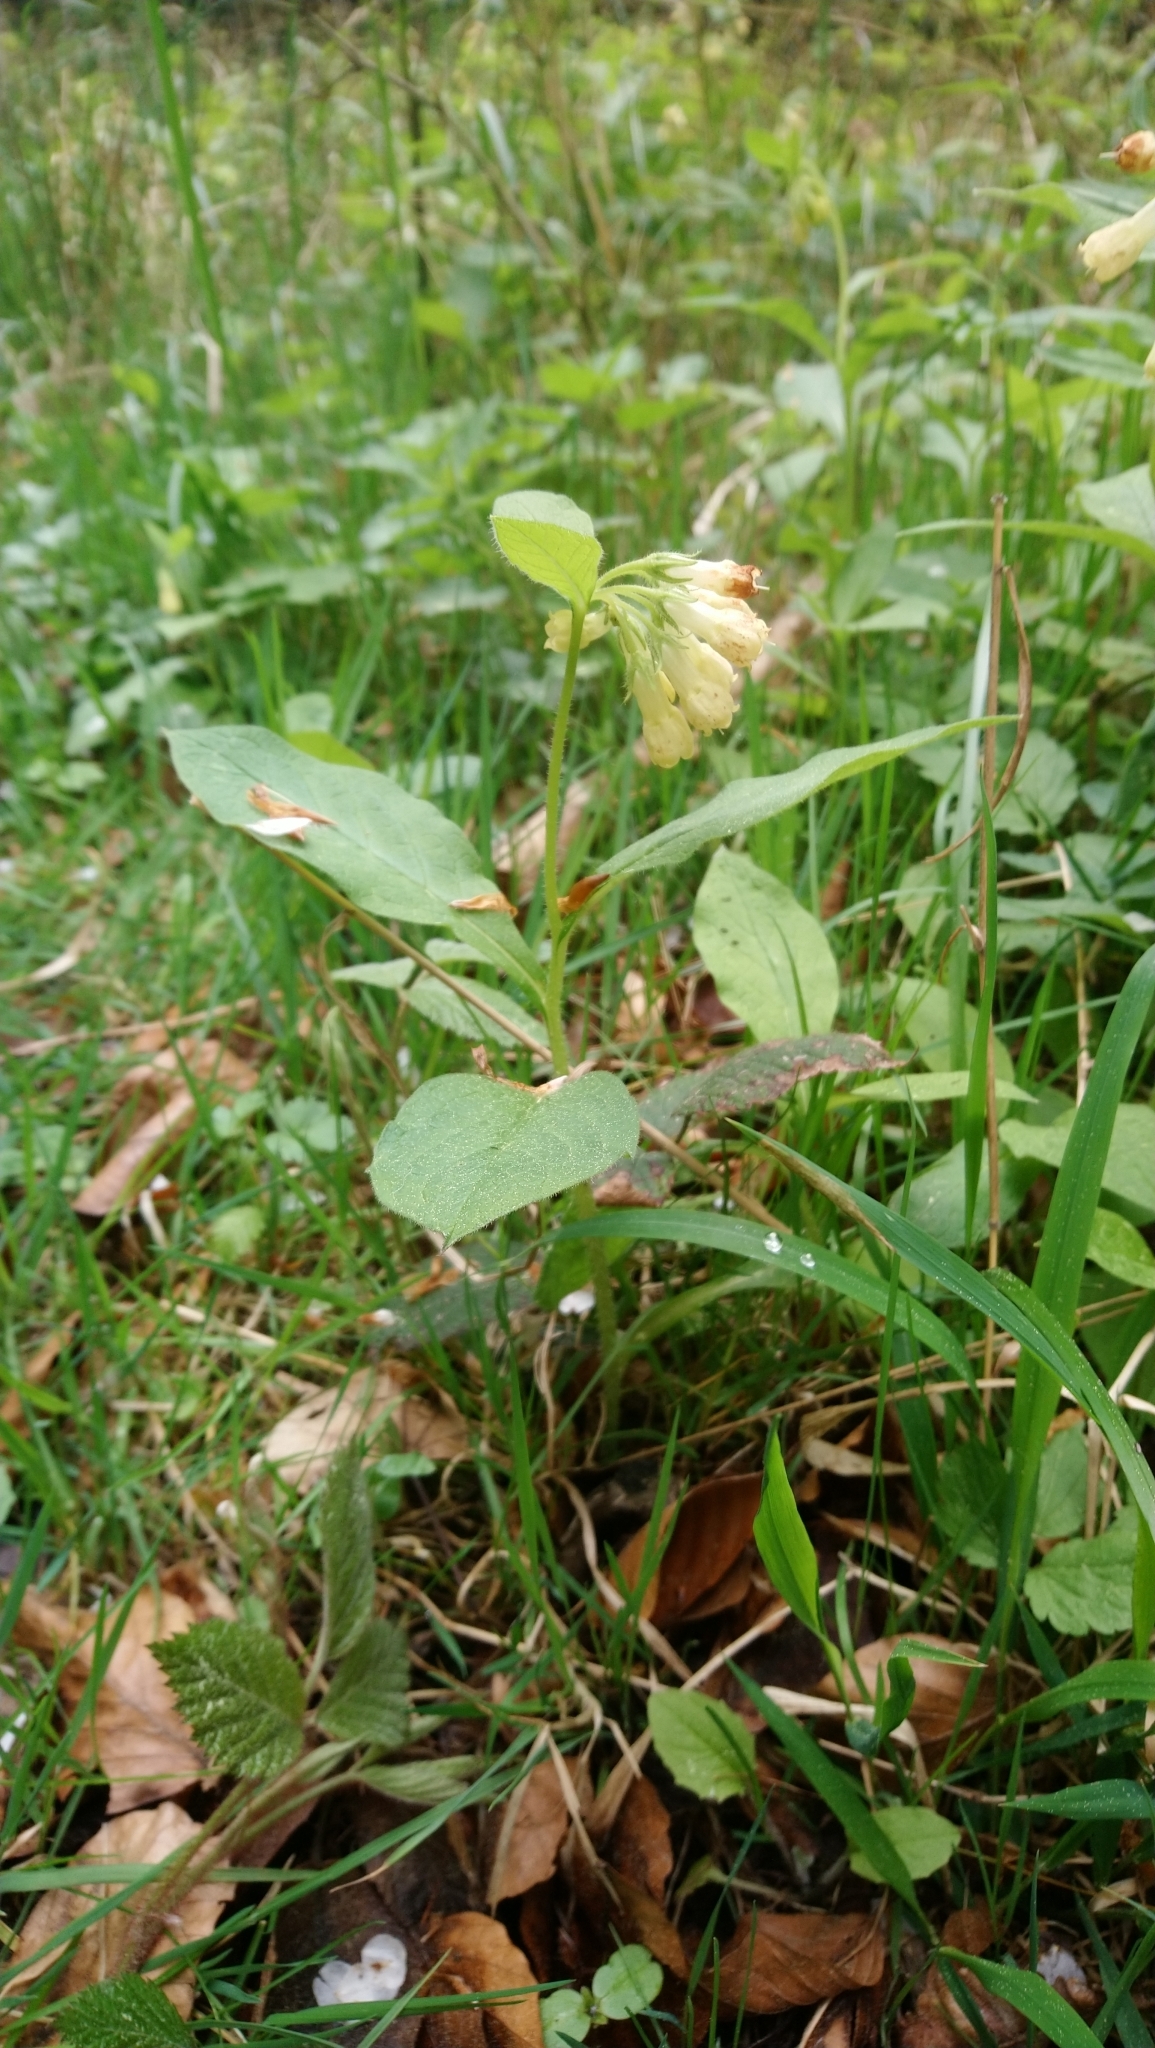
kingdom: Plantae
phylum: Tracheophyta
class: Magnoliopsida
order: Boraginales
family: Boraginaceae
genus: Symphytum
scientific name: Symphytum tuberosum
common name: Tuberous comfrey
